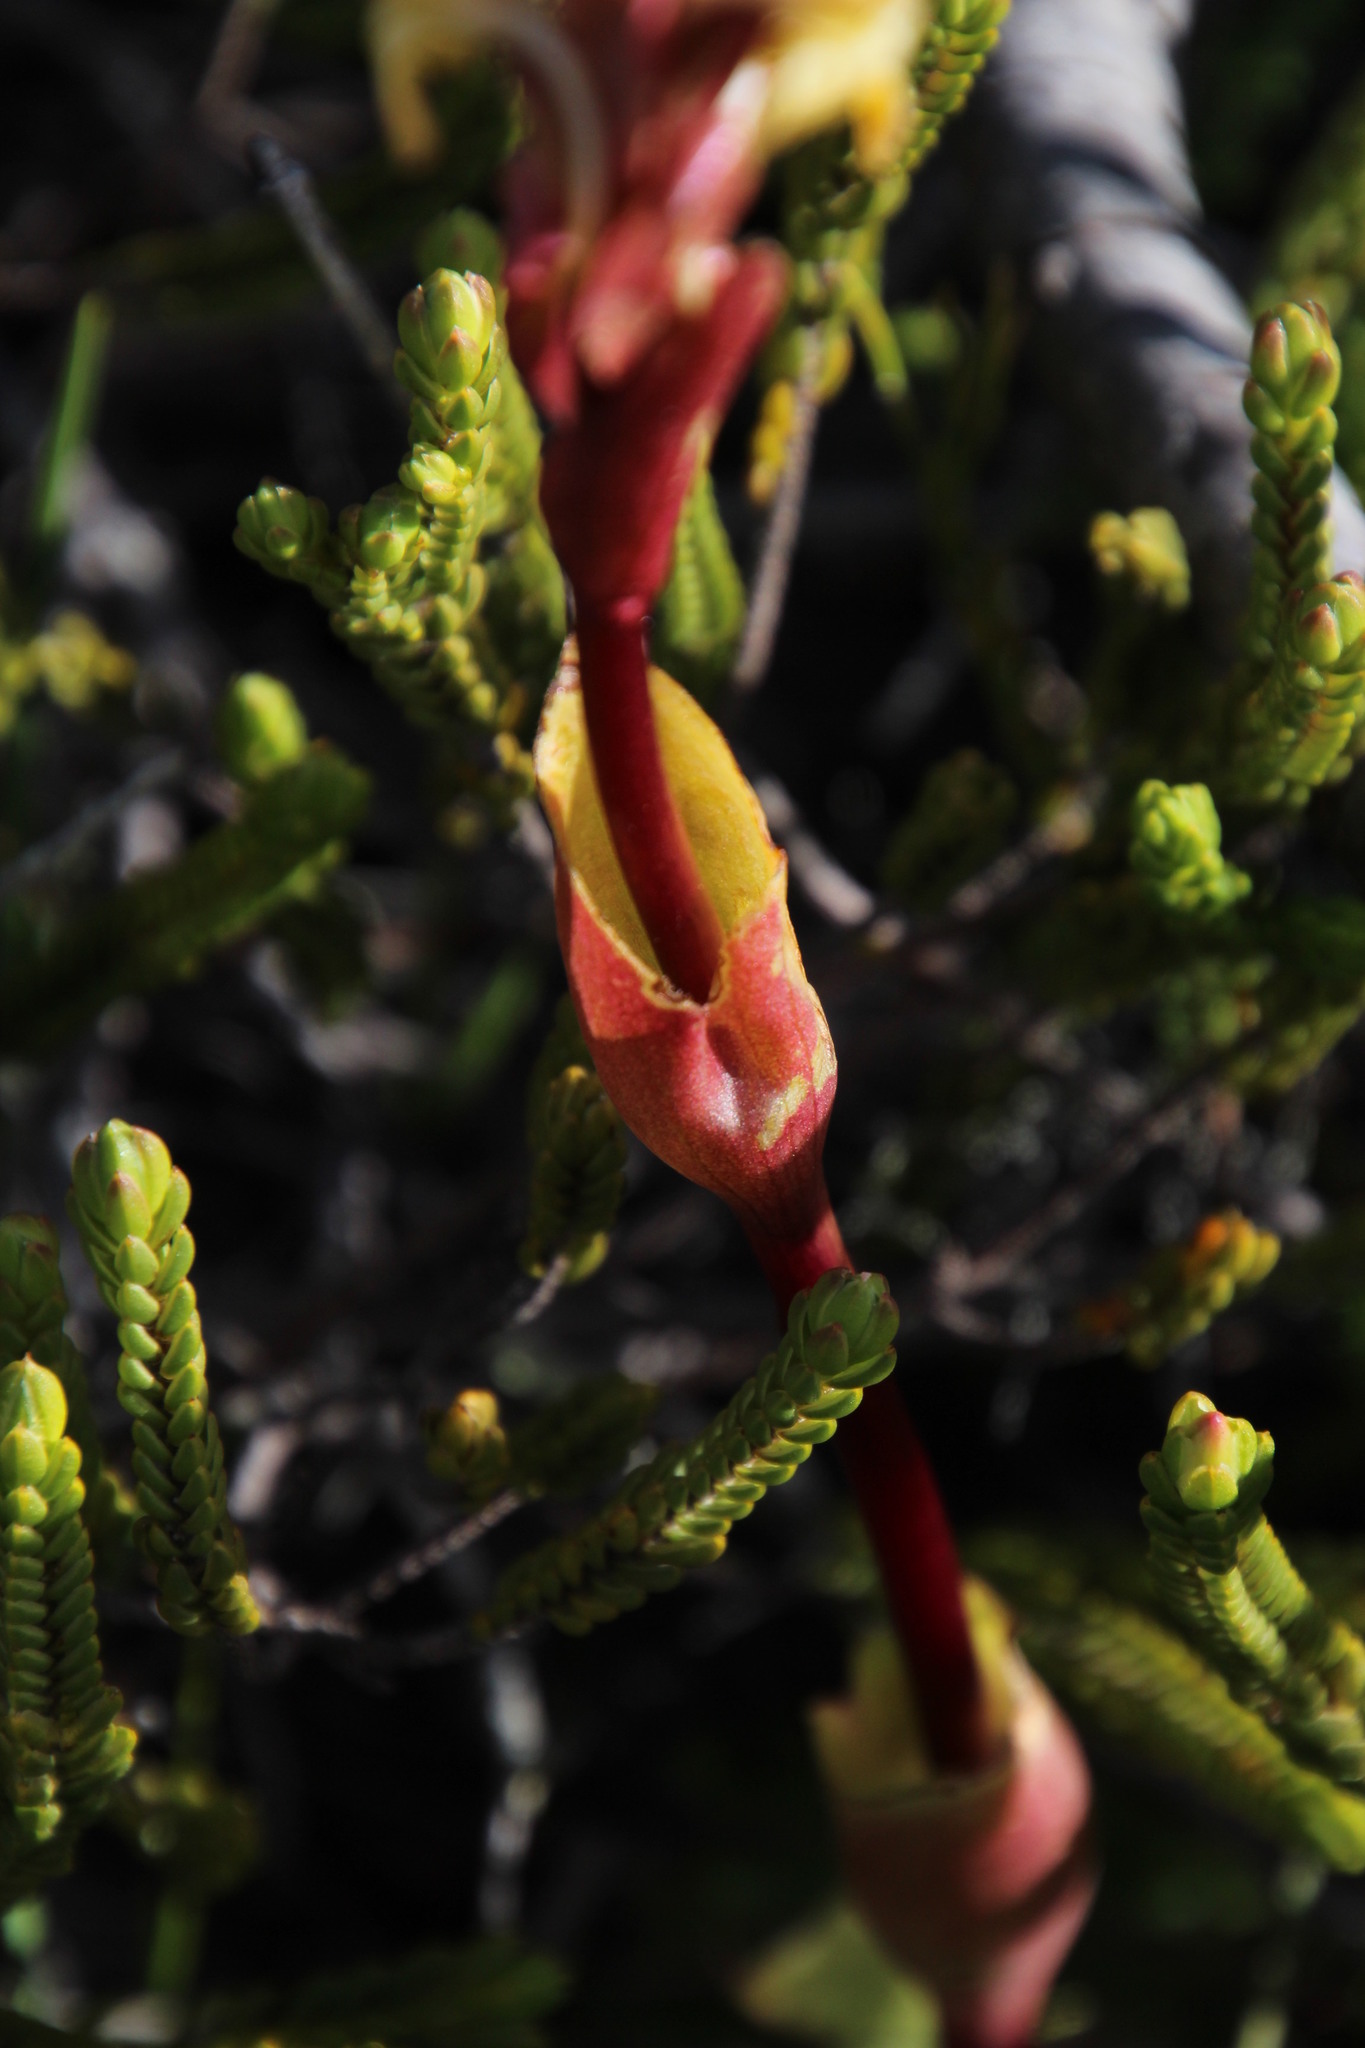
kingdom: Plantae
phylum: Tracheophyta
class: Liliopsida
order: Asparagales
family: Orchidaceae
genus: Satyrium
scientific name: Satyrium bicorne
